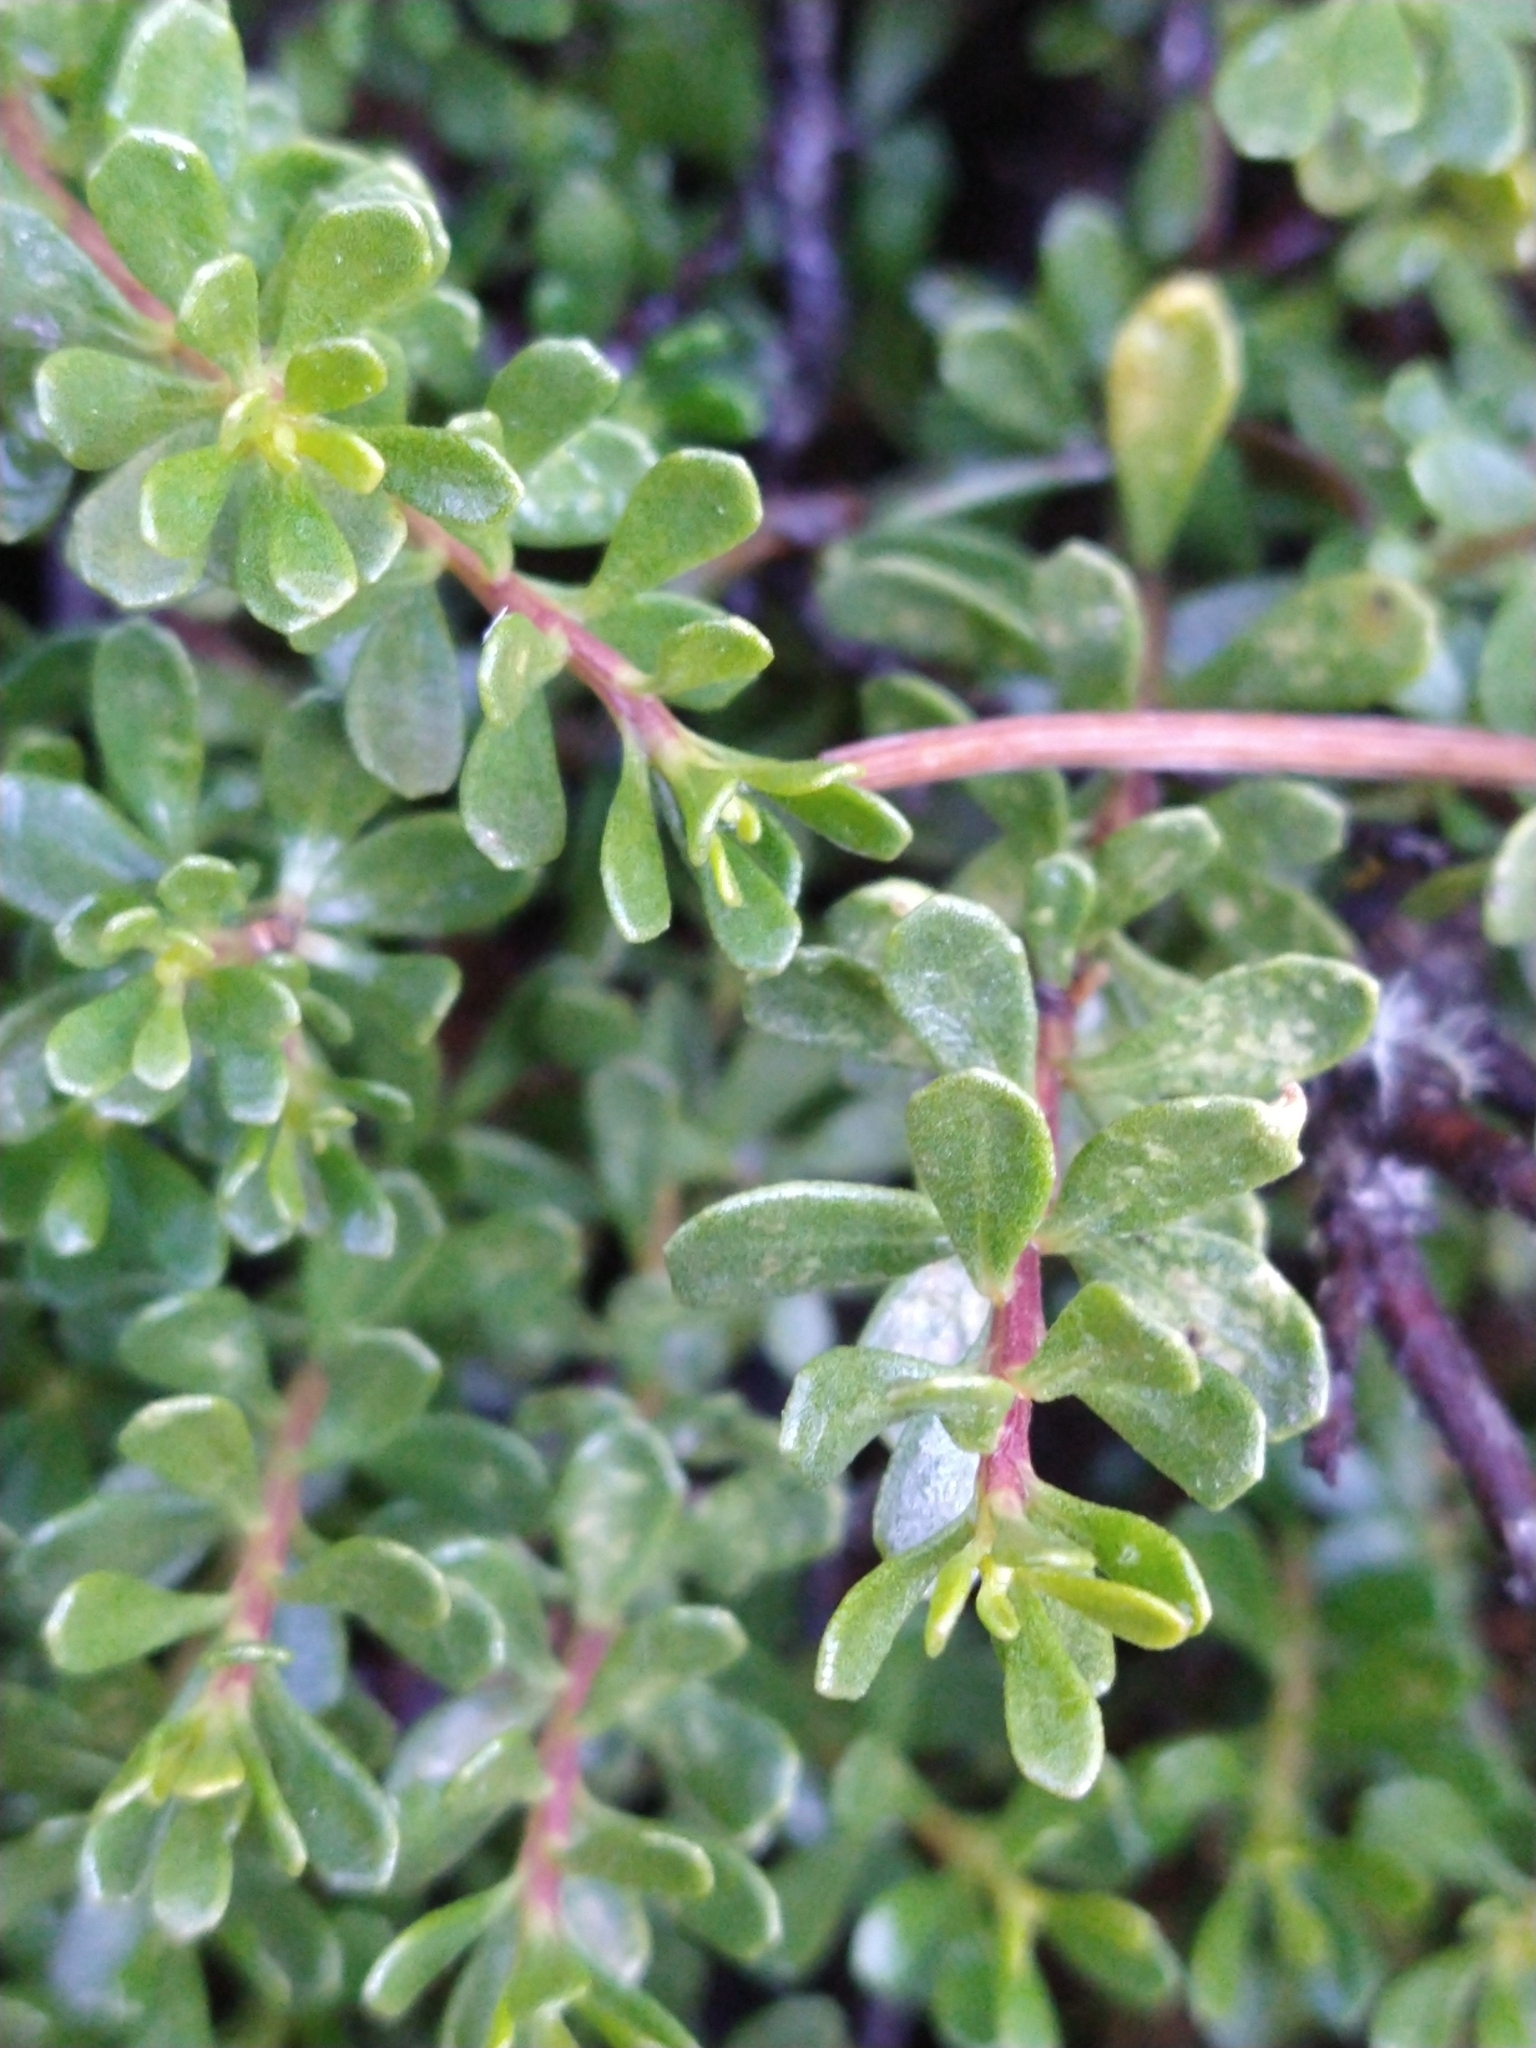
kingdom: Plantae
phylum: Tracheophyta
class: Magnoliopsida
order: Asterales
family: Asteraceae
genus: Baccharis
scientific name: Baccharis magellanica
